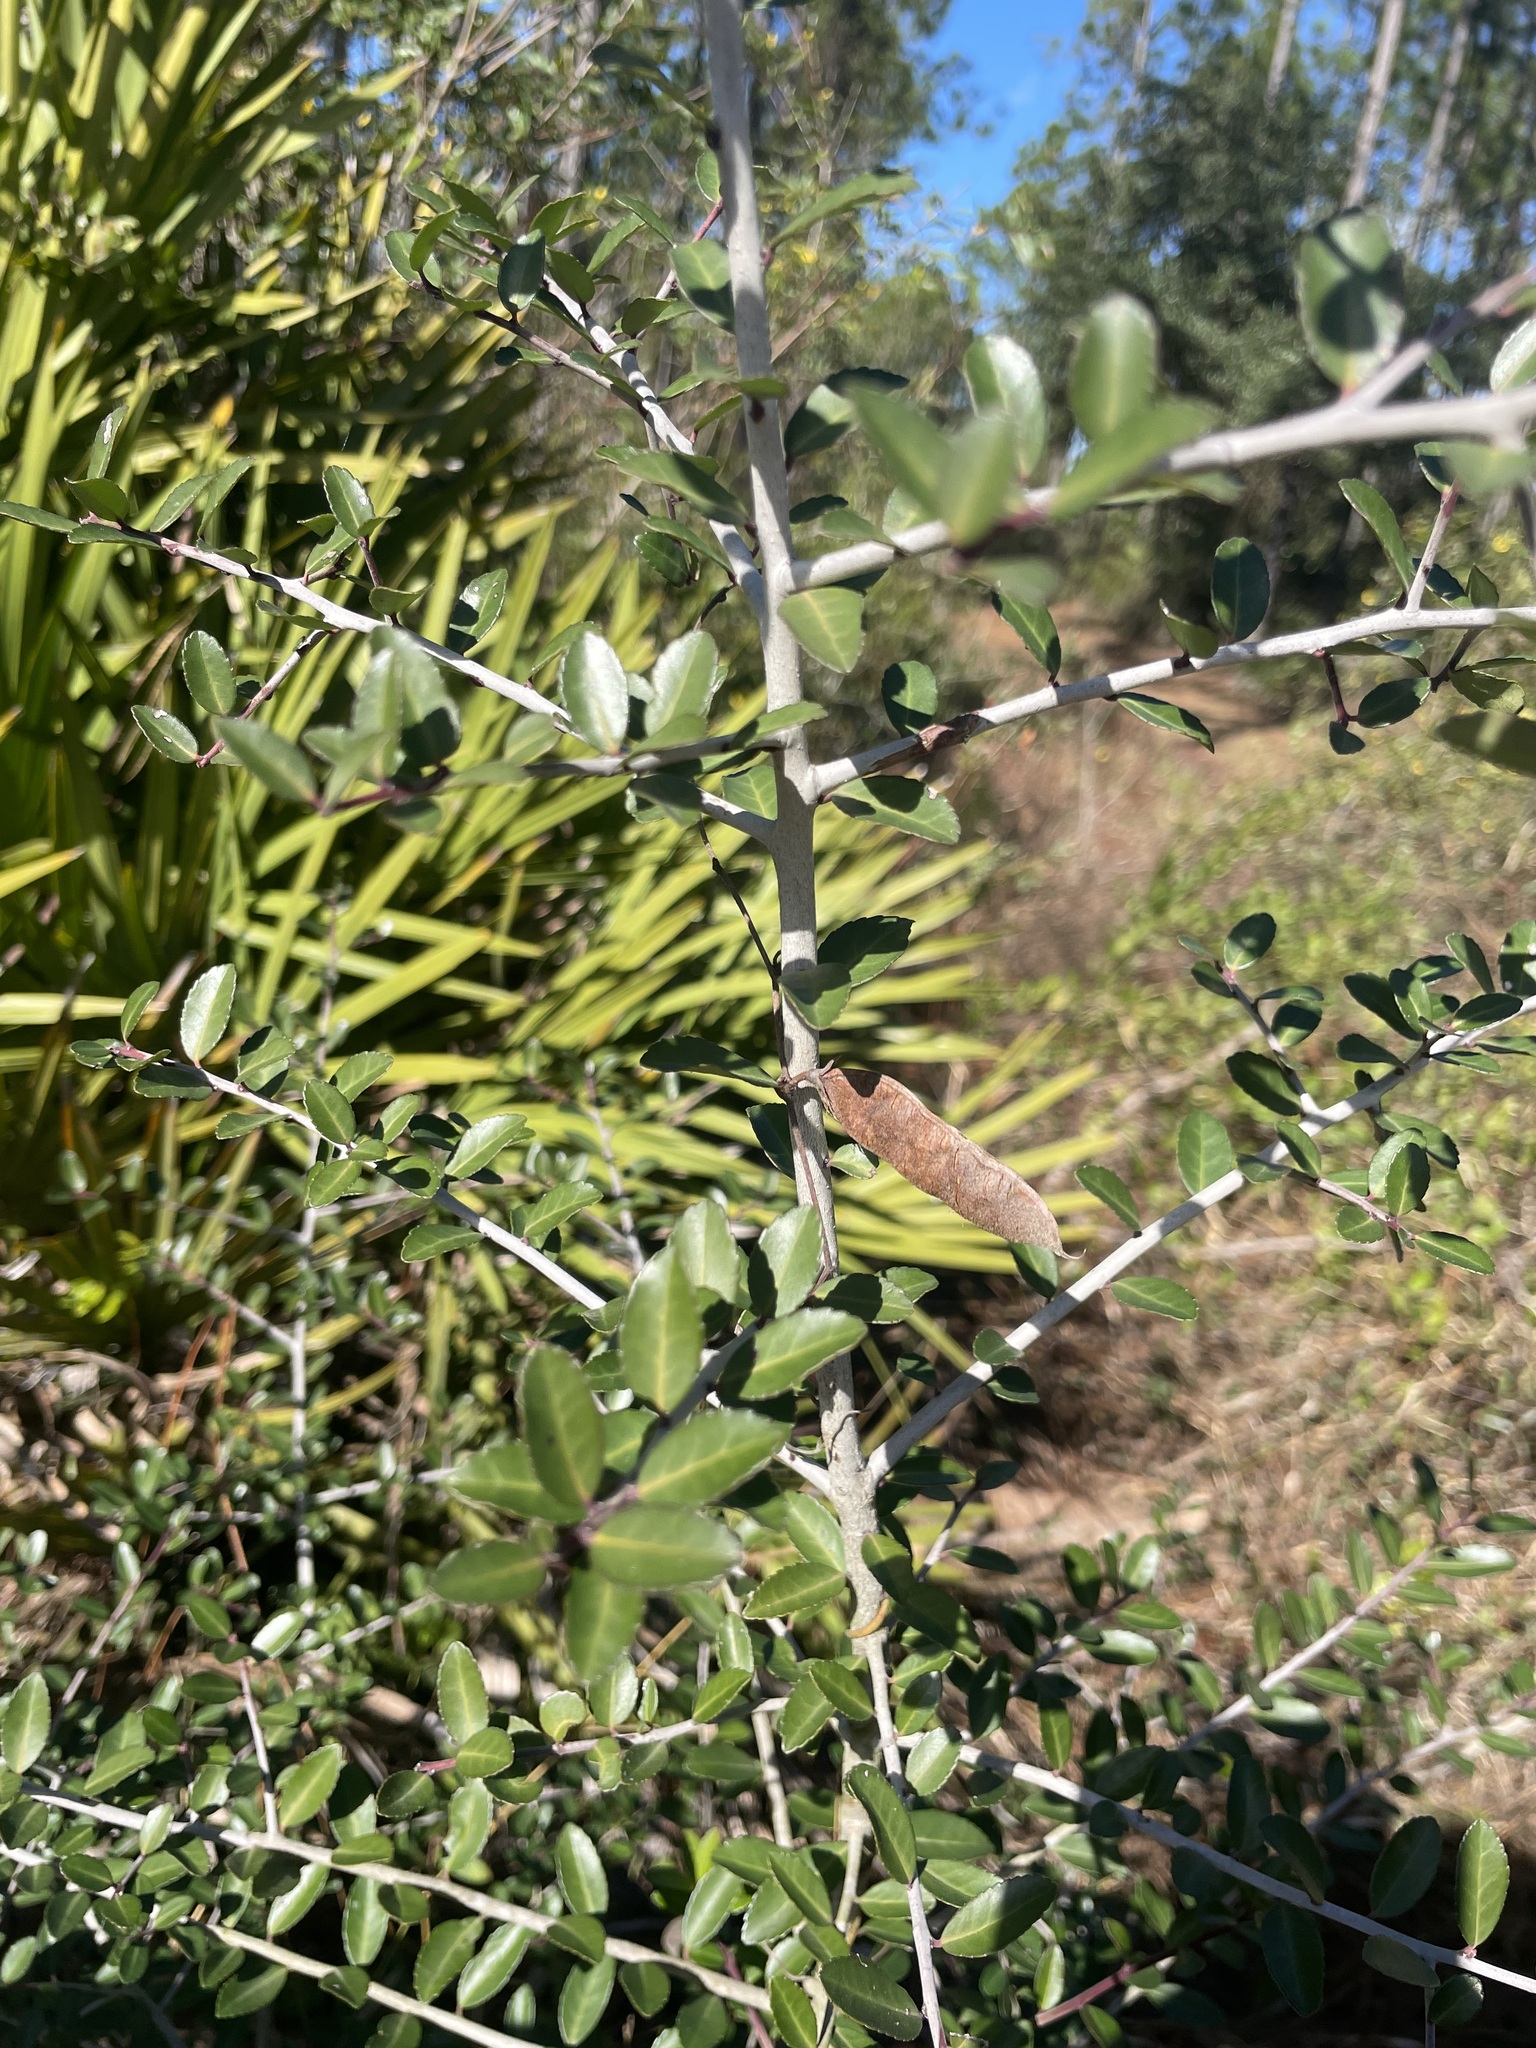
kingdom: Plantae
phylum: Tracheophyta
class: Magnoliopsida
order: Aquifoliales
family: Aquifoliaceae
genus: Ilex
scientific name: Ilex vomitoria
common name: Yaupon holly
